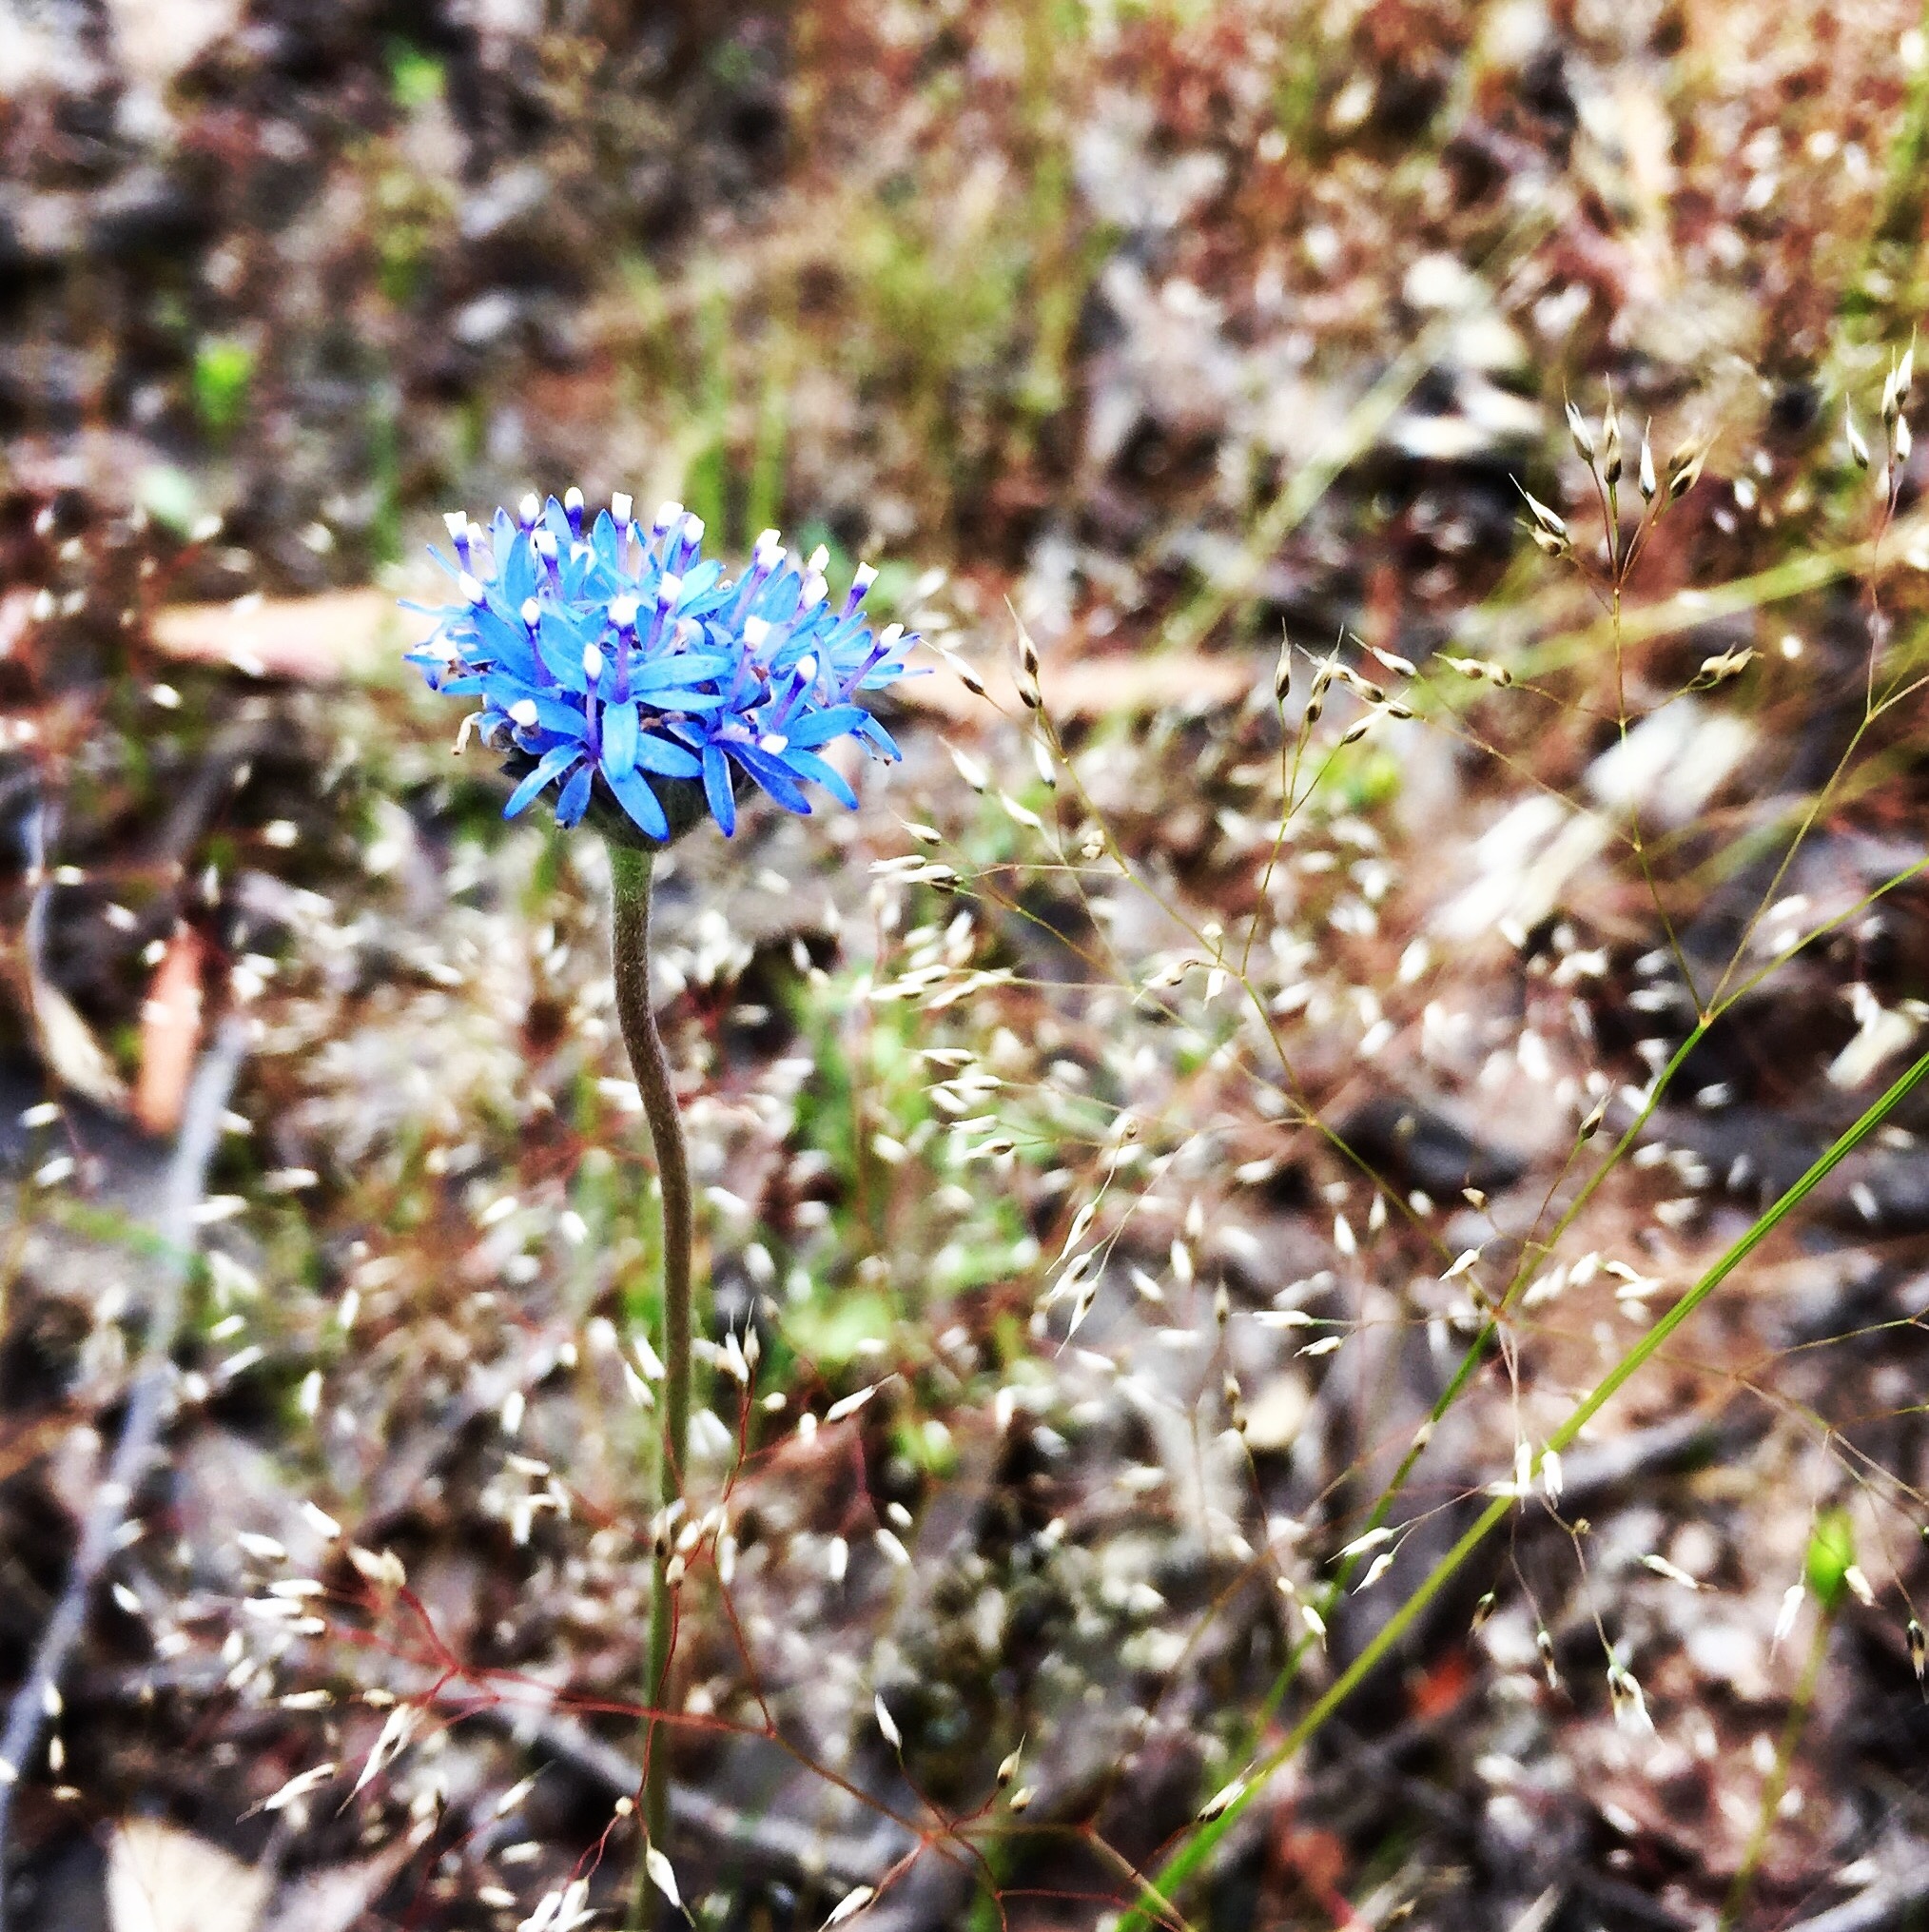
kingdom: Plantae
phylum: Tracheophyta
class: Magnoliopsida
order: Asterales
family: Goodeniaceae
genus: Brunonia
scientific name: Brunonia australis
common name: Blue pincushion
